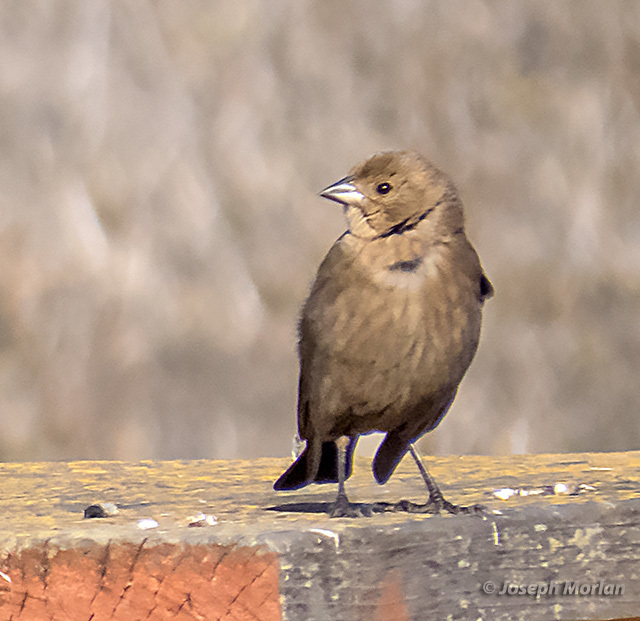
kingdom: Animalia
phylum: Chordata
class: Aves
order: Passeriformes
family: Icteridae
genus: Molothrus
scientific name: Molothrus ater
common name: Brown-headed cowbird
